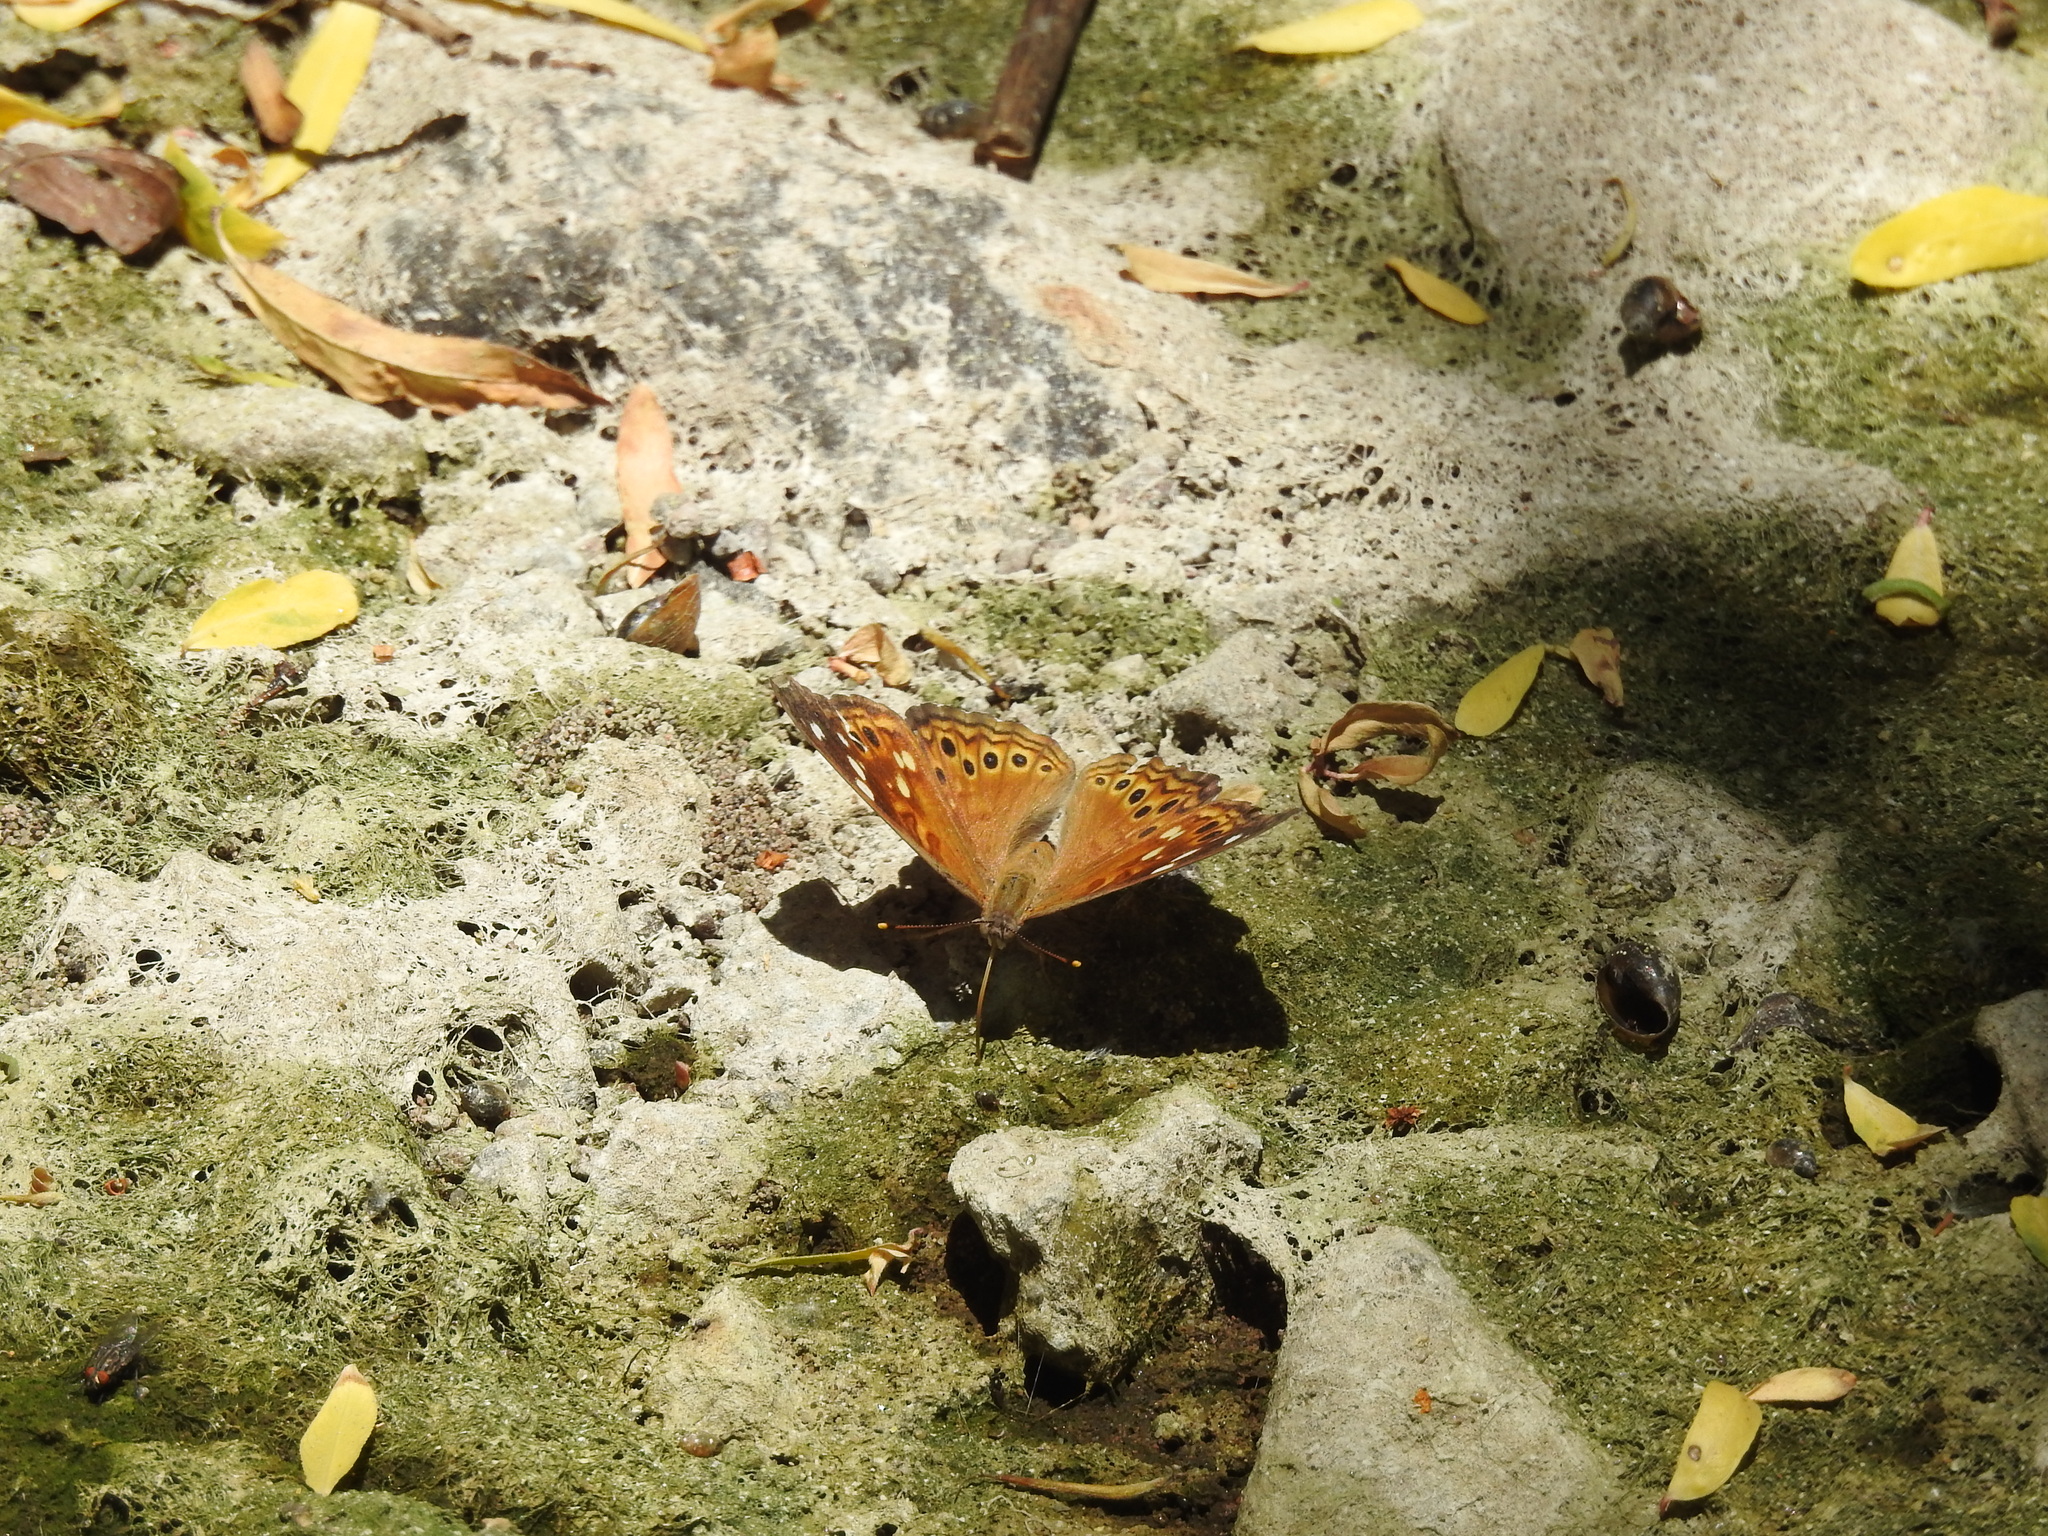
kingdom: Animalia
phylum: Arthropoda
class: Insecta
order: Lepidoptera
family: Nymphalidae
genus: Asterocampa
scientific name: Asterocampa leilia
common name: Empress leilia
